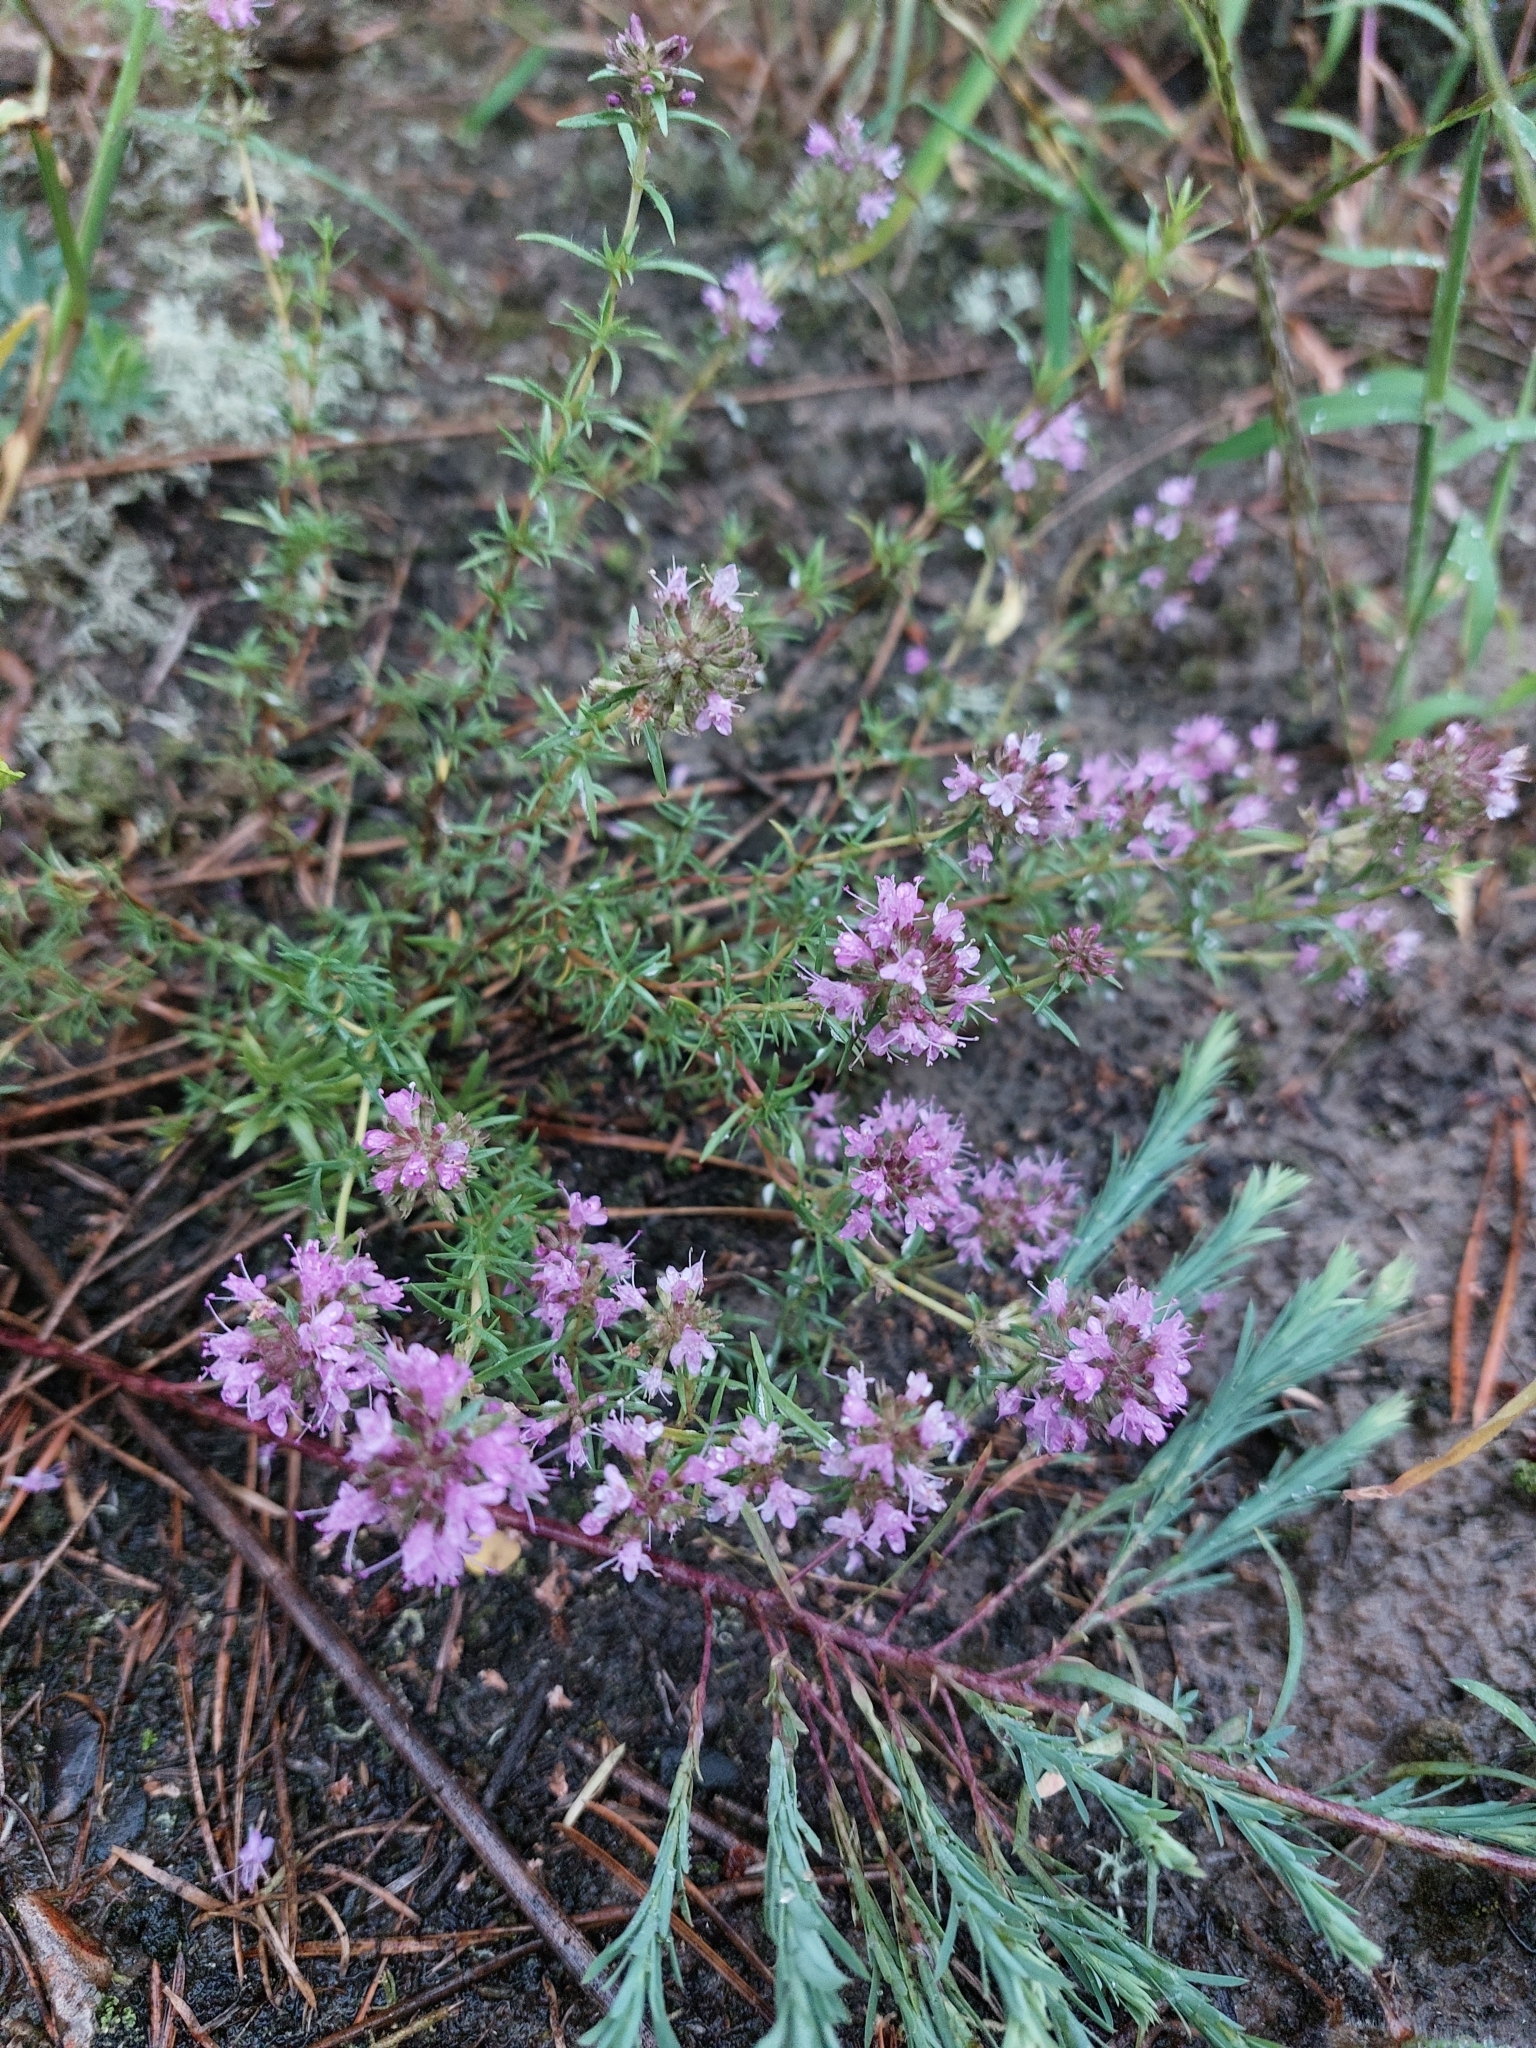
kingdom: Plantae
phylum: Tracheophyta
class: Magnoliopsida
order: Lamiales
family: Lamiaceae
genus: Thymus
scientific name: Thymus pallasianus
